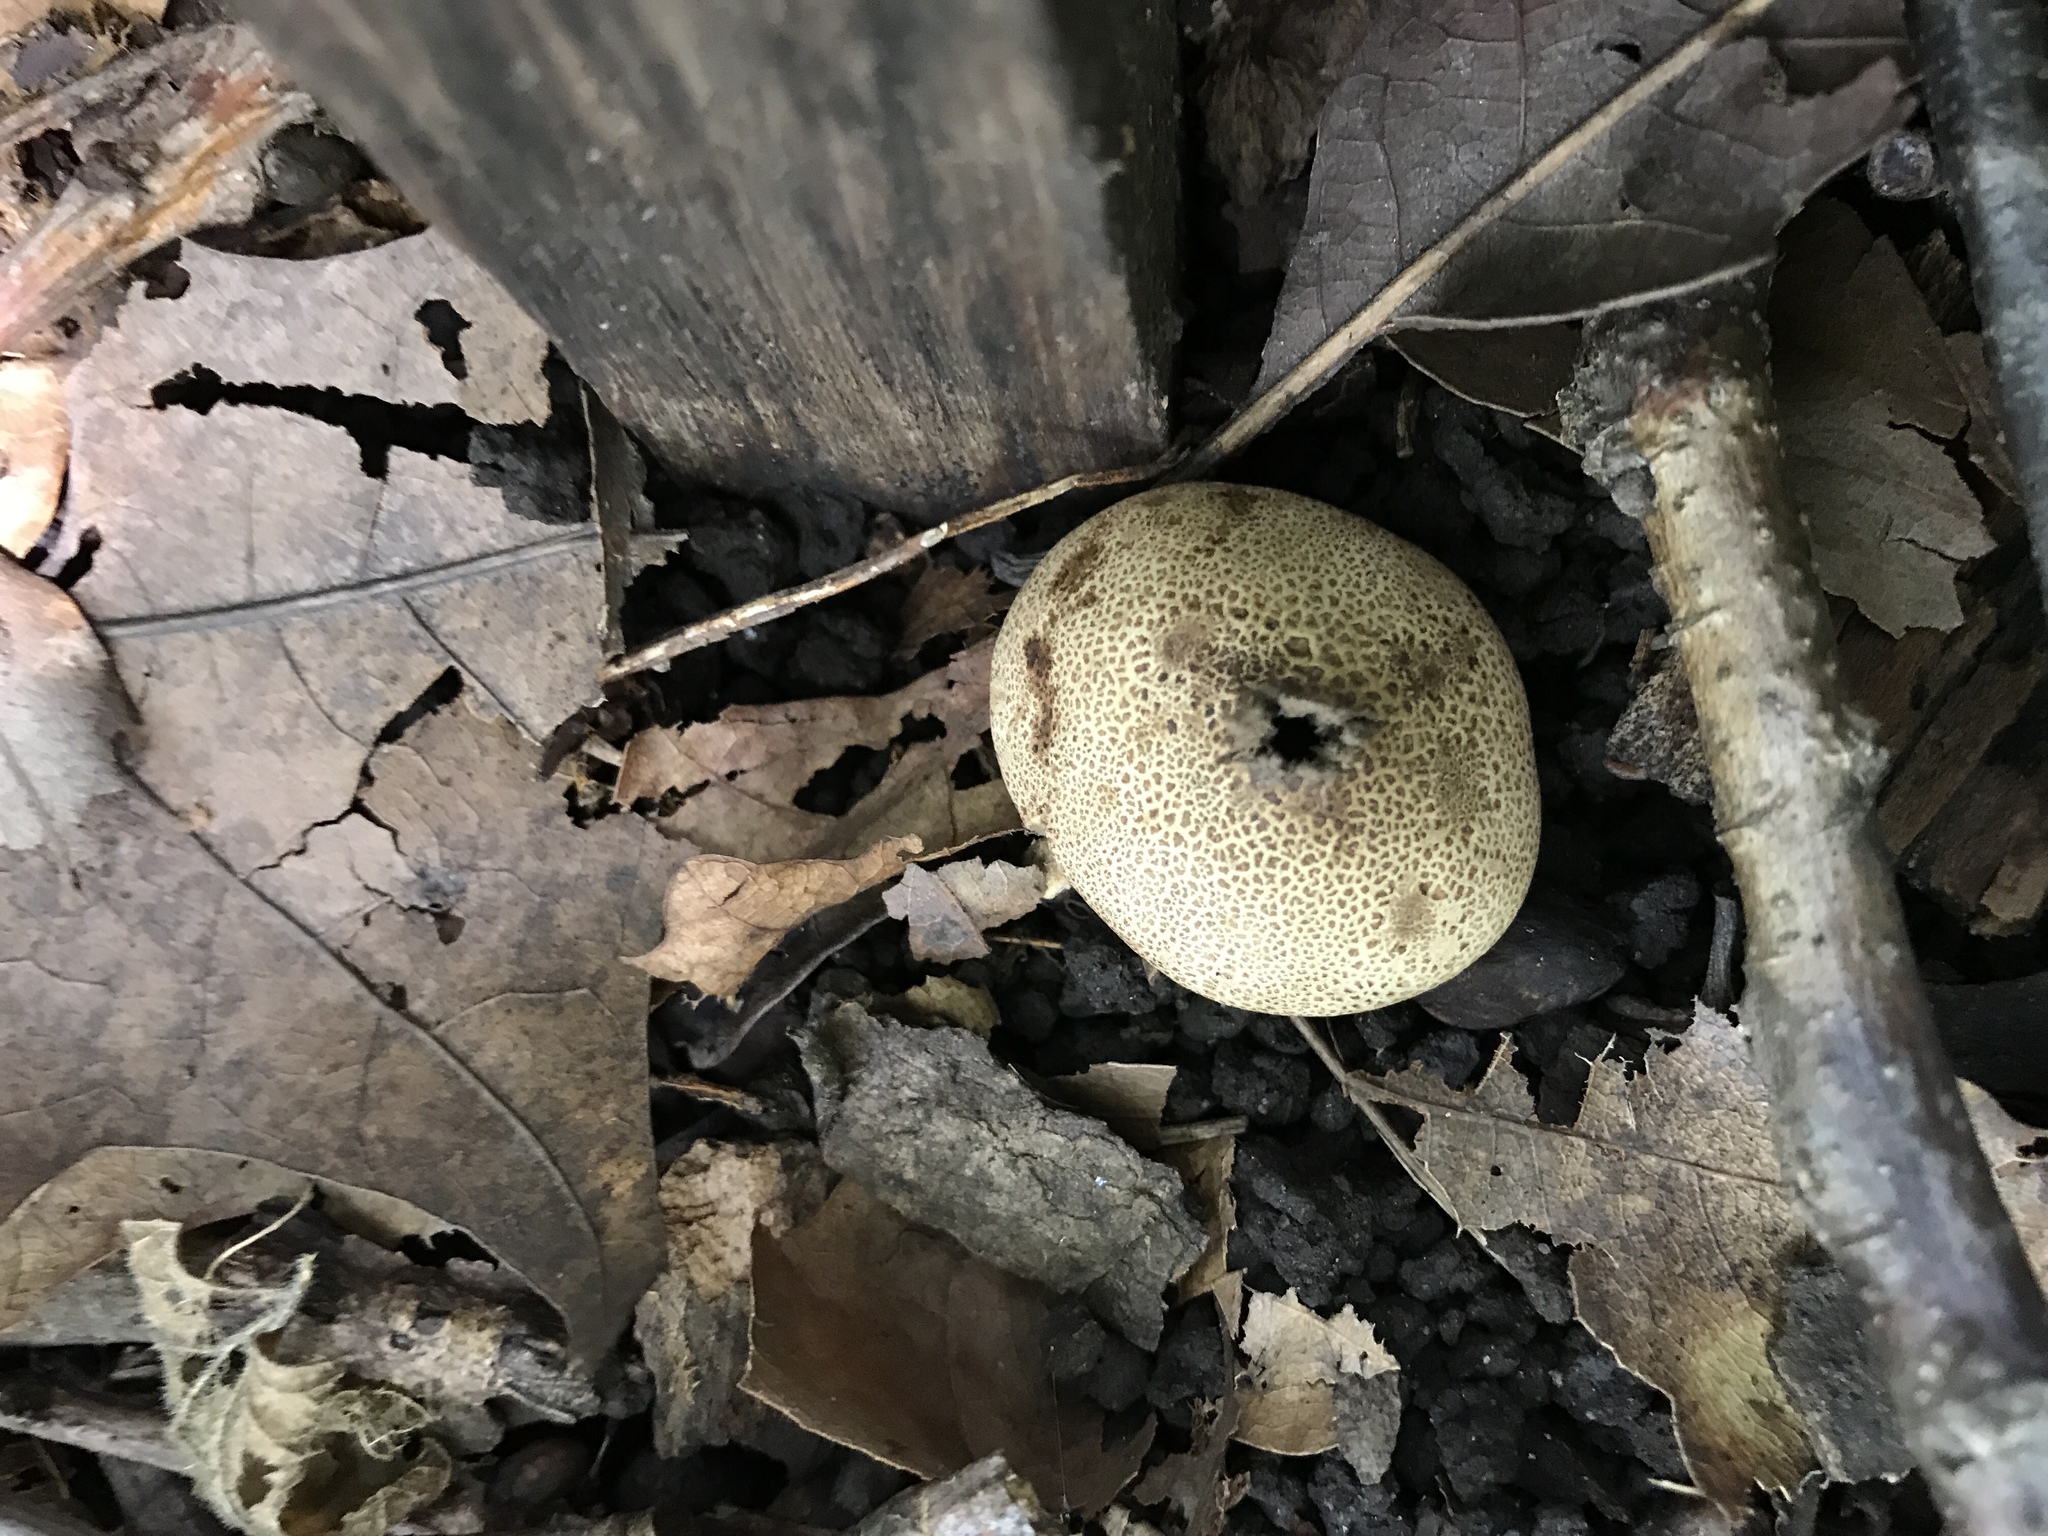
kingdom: Fungi
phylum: Basidiomycota
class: Agaricomycetes
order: Agaricales
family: Lycoperdaceae
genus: Apioperdon
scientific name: Apioperdon pyriforme
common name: Pear-shaped puffball
